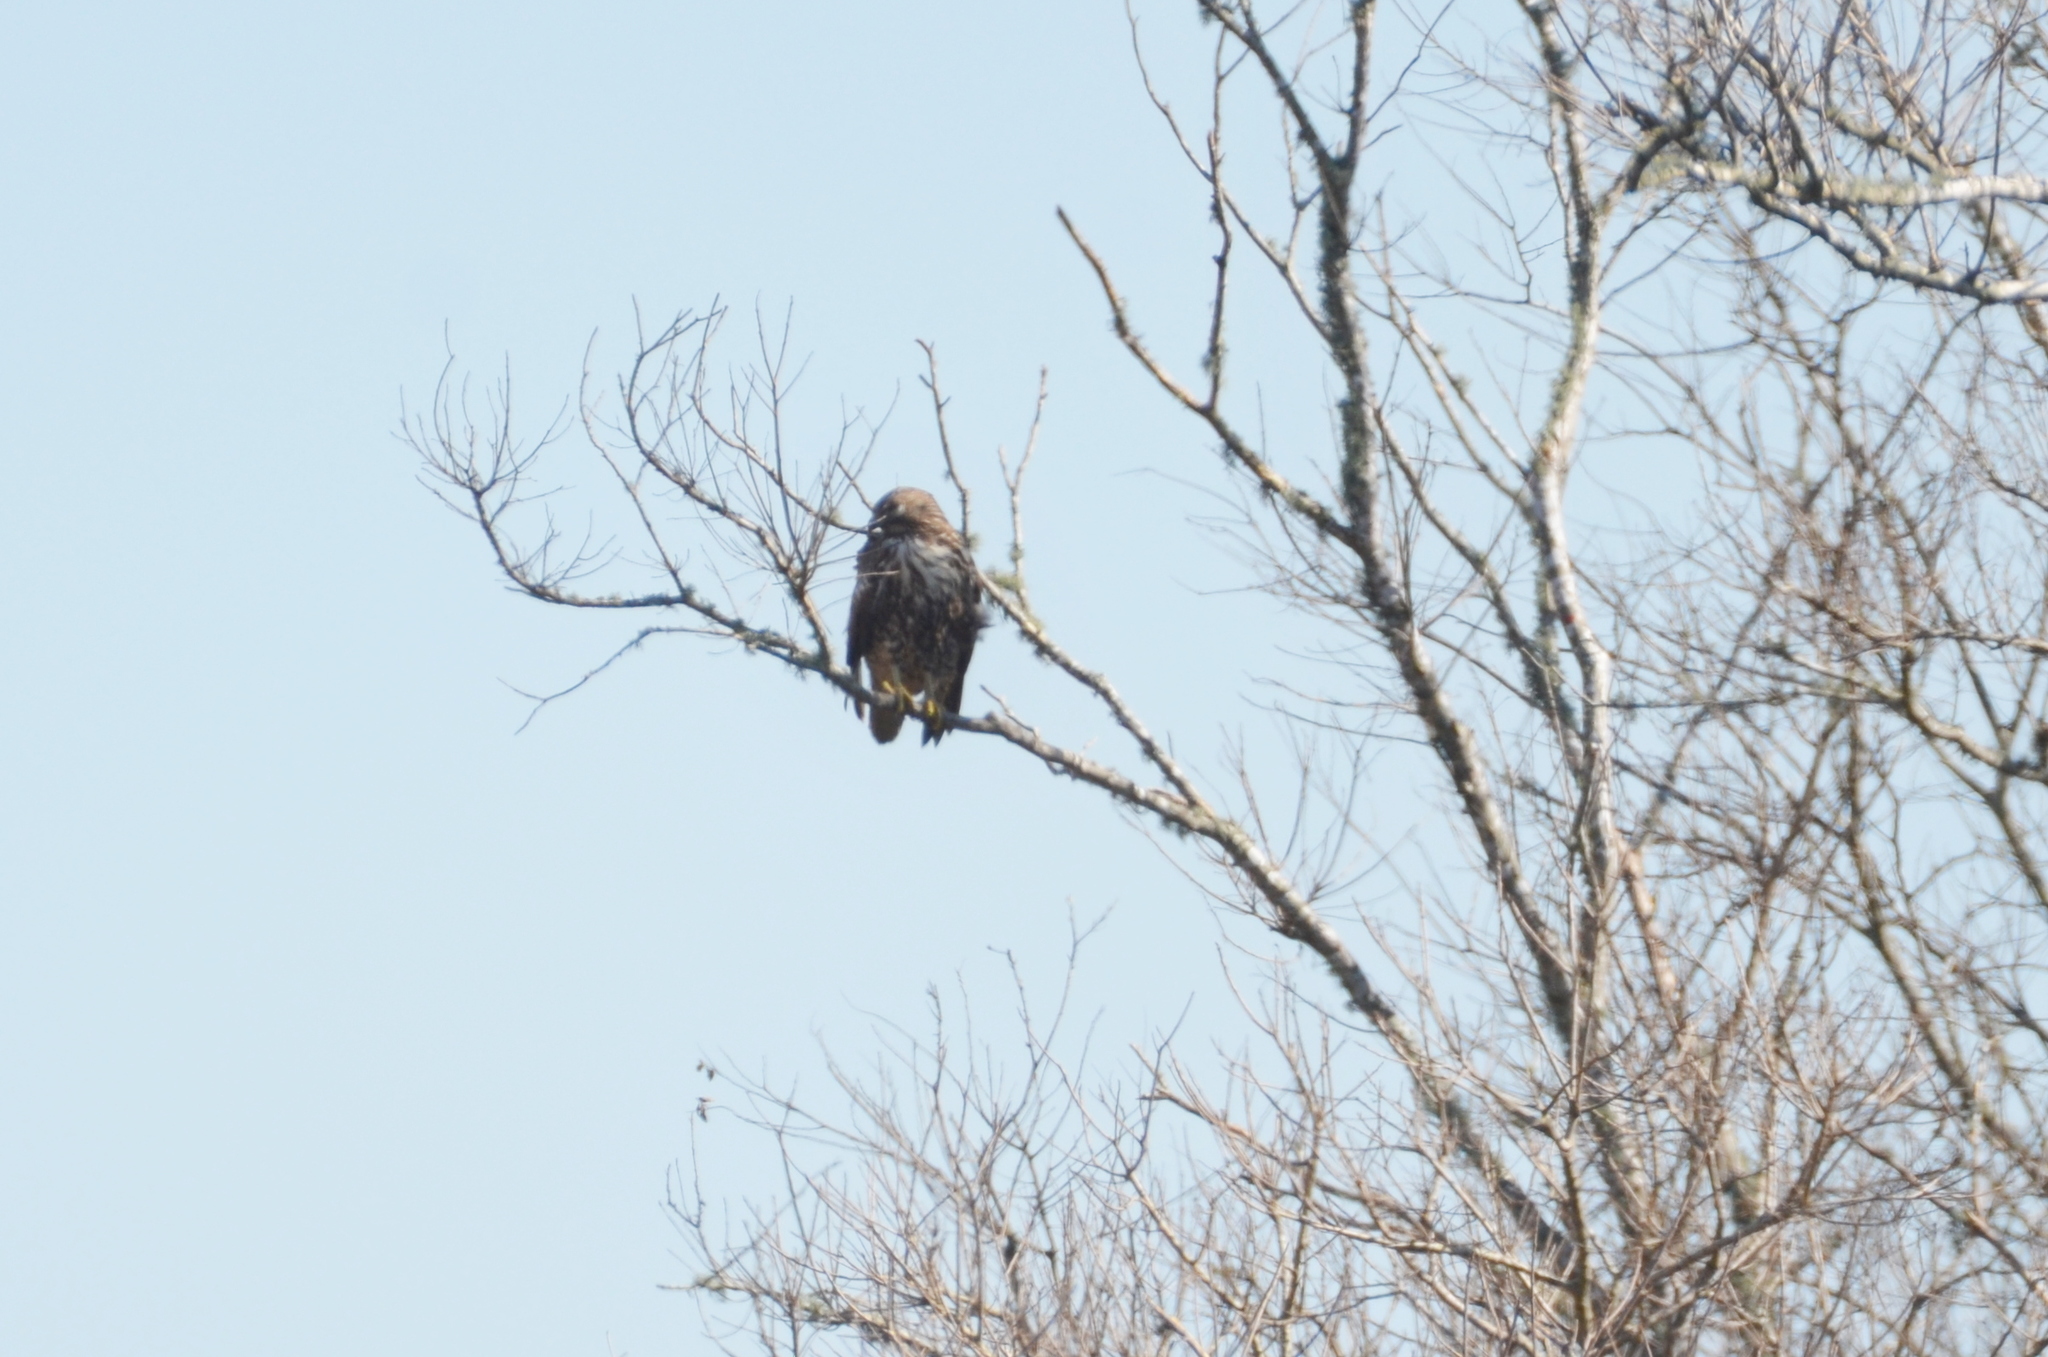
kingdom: Animalia
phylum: Chordata
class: Aves
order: Accipitriformes
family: Accipitridae
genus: Buteo
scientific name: Buteo jamaicensis
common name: Red-tailed hawk
